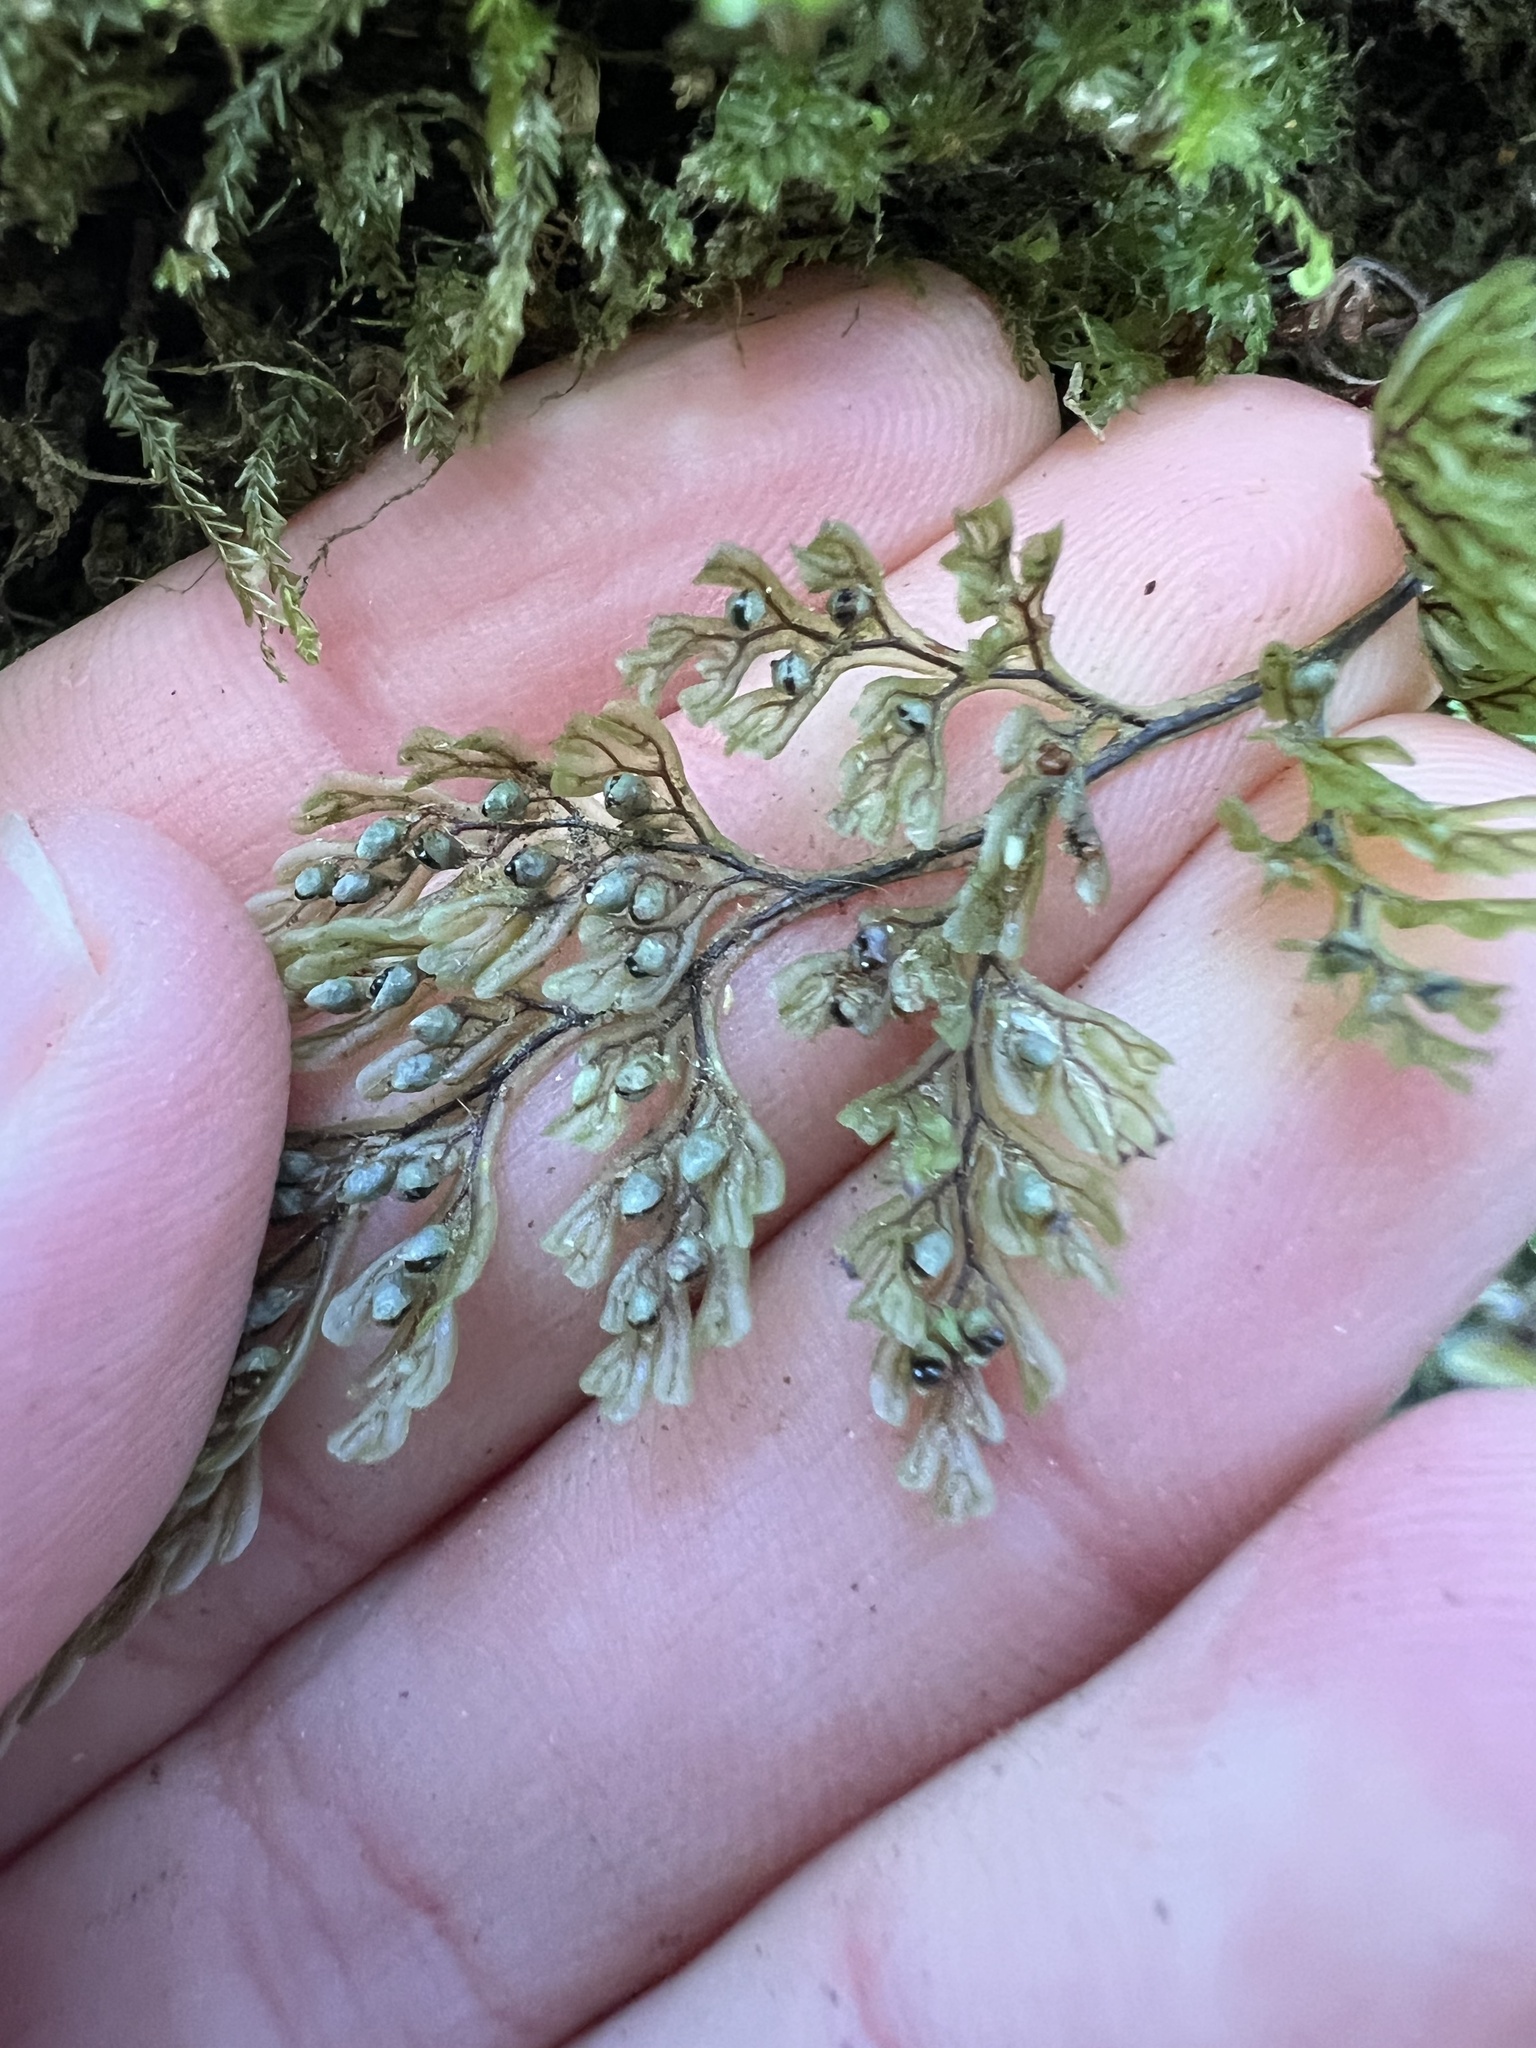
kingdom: Plantae
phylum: Tracheophyta
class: Polypodiopsida
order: Hymenophyllales
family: Hymenophyllaceae
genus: Hymenophyllum
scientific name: Hymenophyllum villosum
